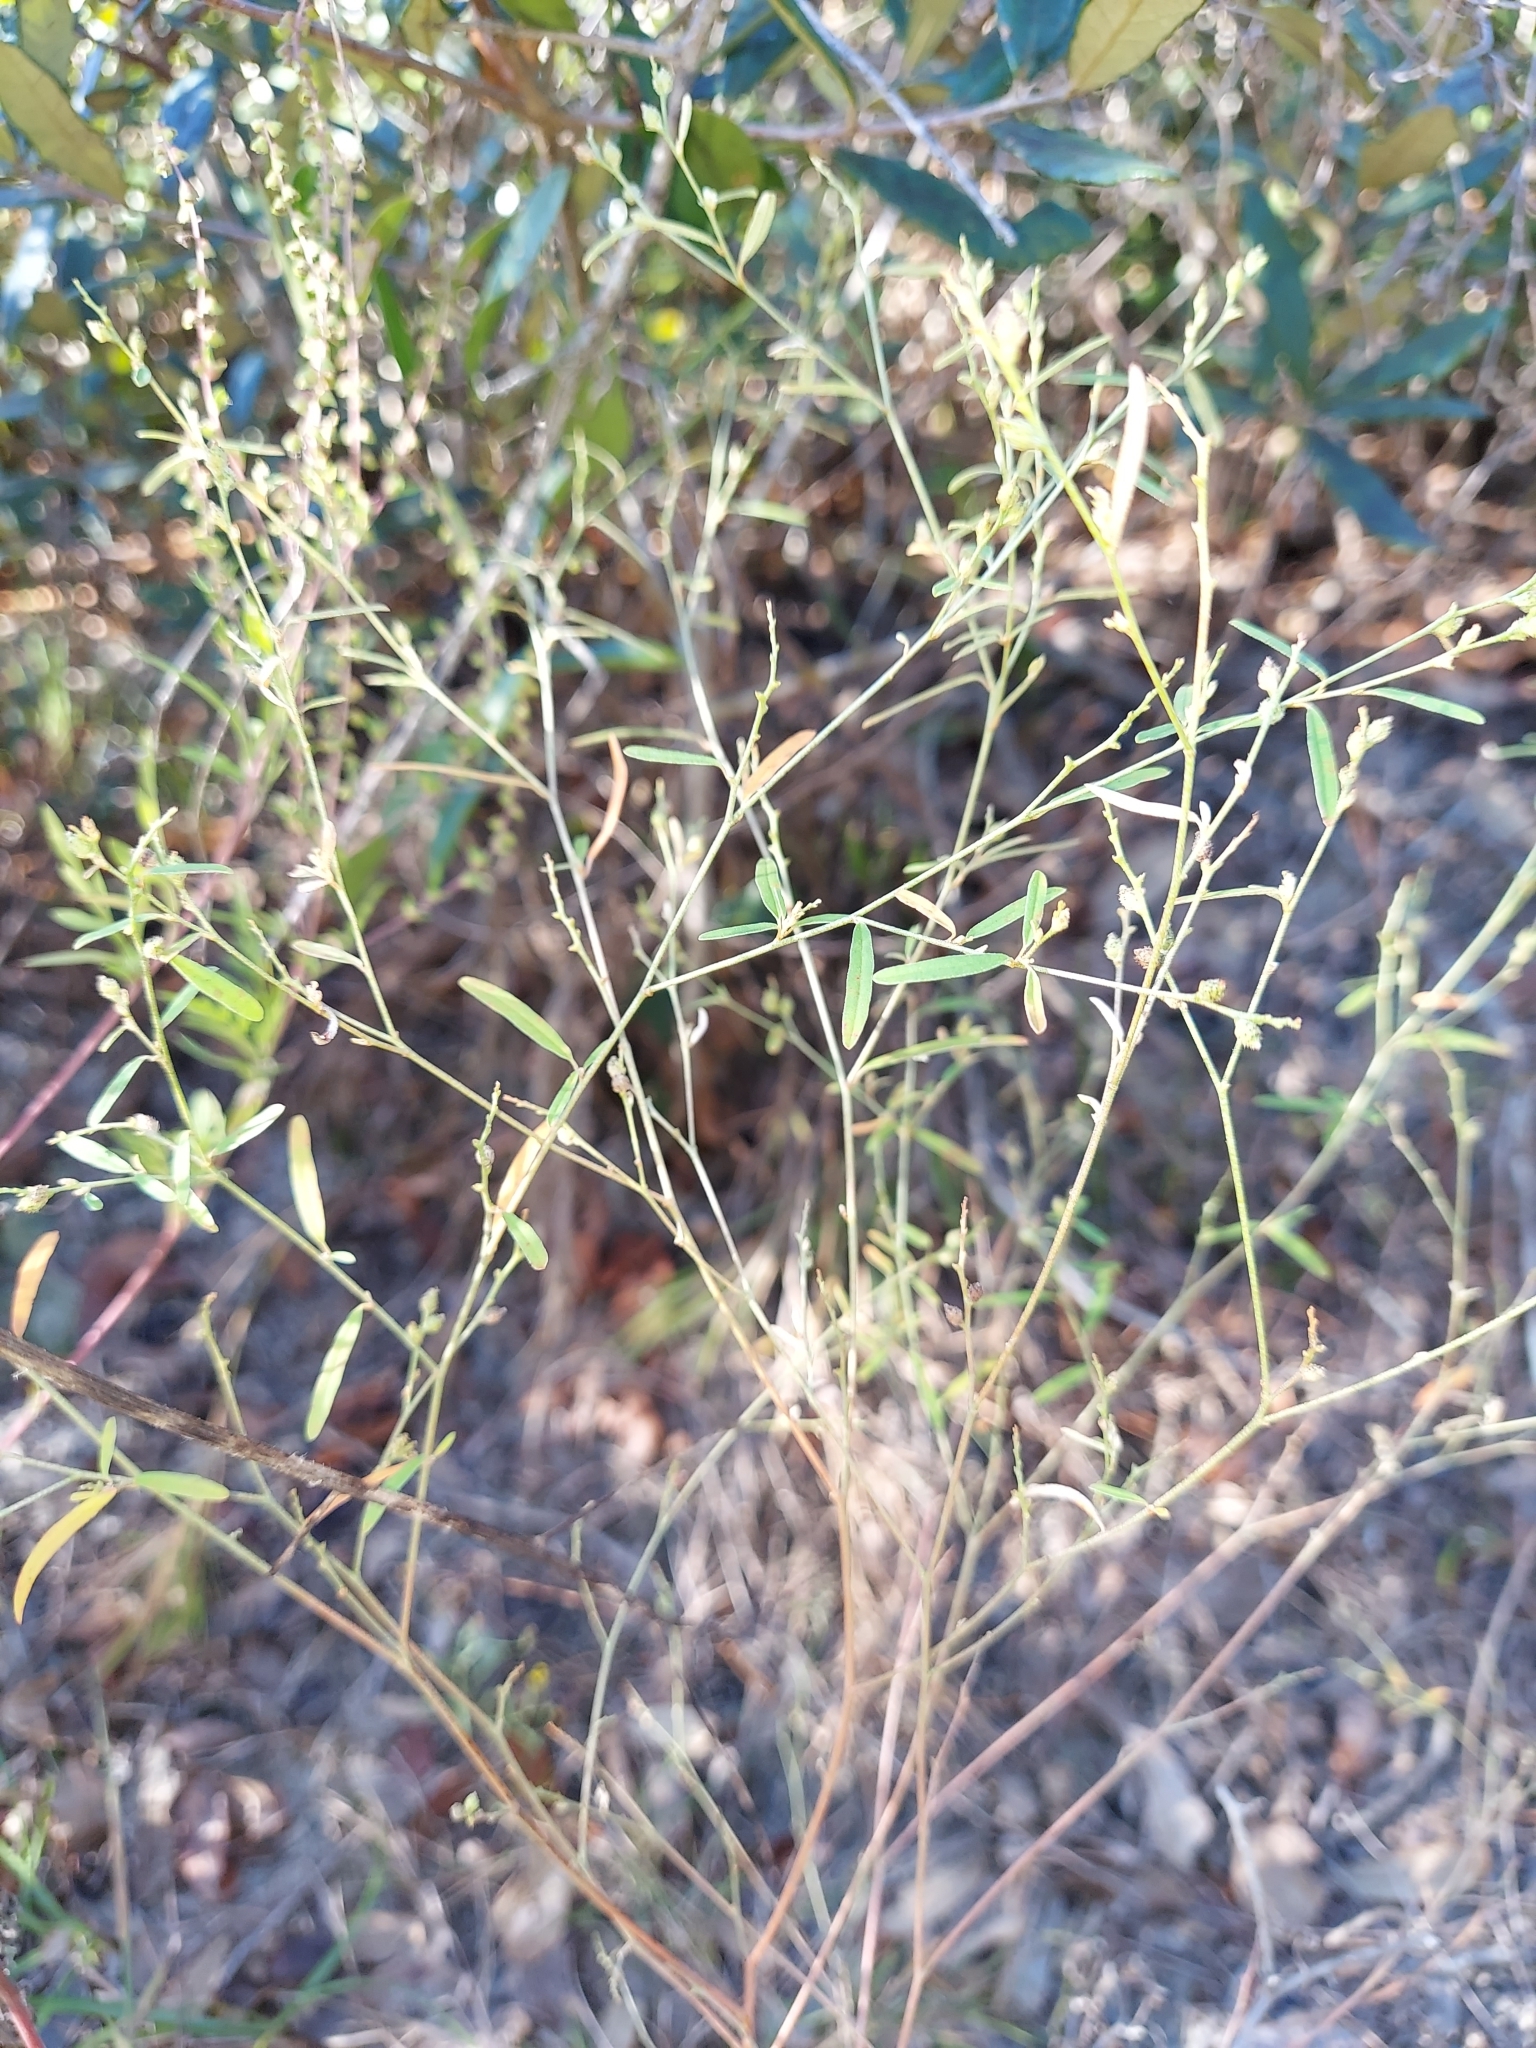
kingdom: Plantae
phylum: Tracheophyta
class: Magnoliopsida
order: Malpighiales
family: Euphorbiaceae
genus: Croton
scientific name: Croton michauxii
